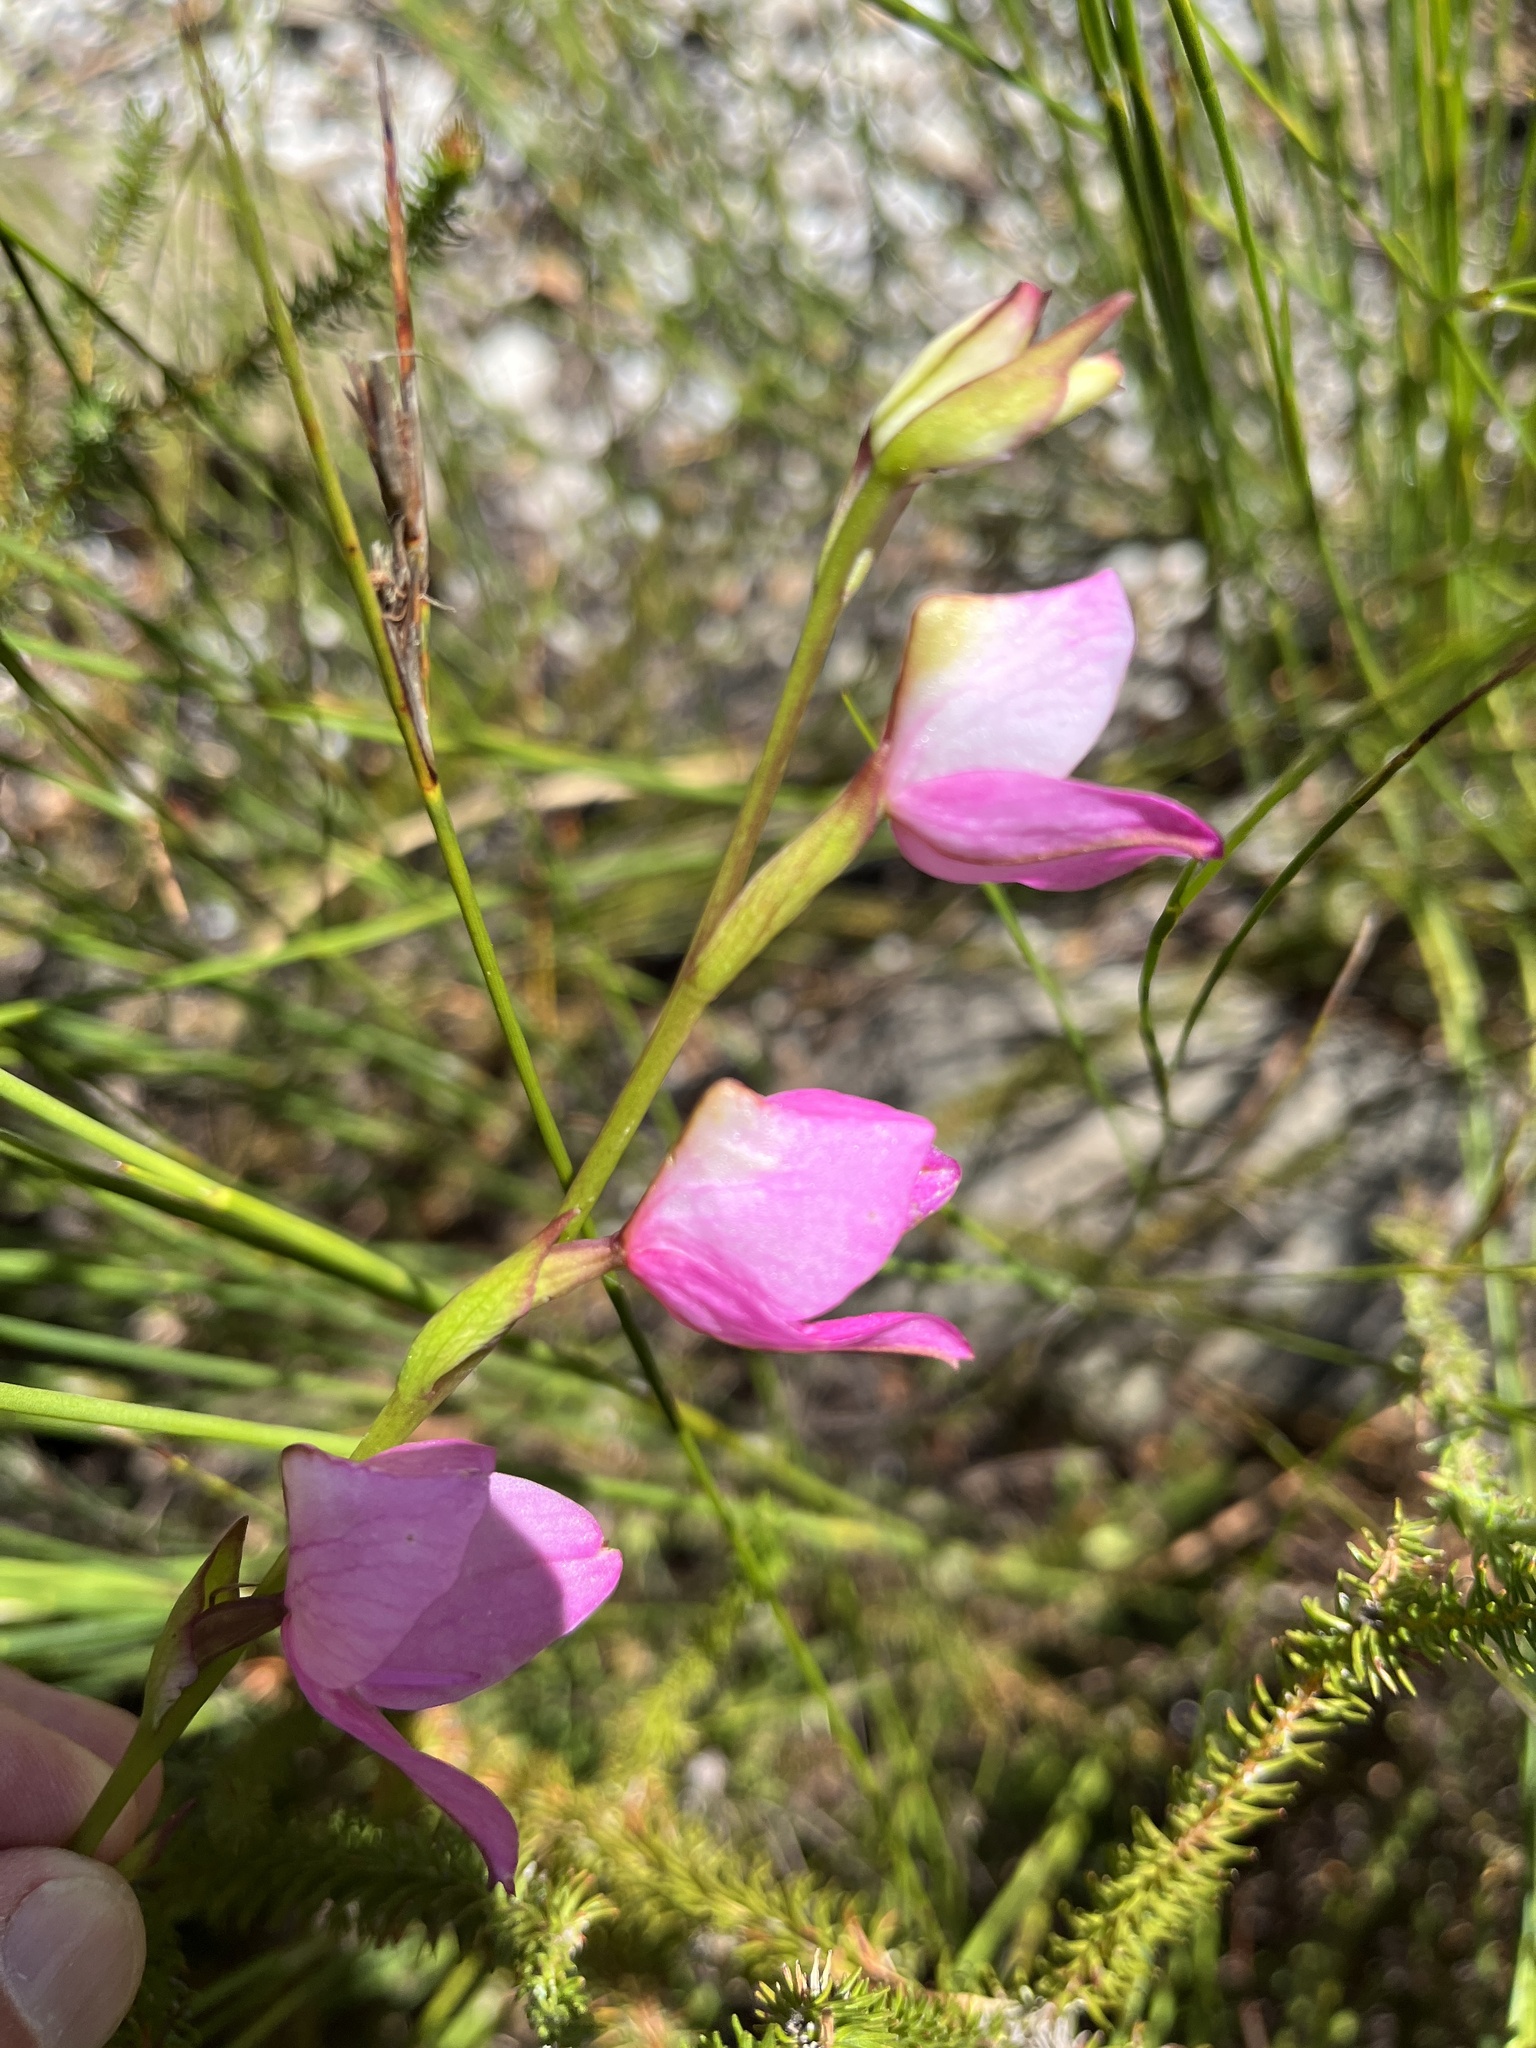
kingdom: Plantae
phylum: Tracheophyta
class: Liliopsida
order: Asparagales
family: Orchidaceae
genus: Disa
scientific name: Disa racemosa
